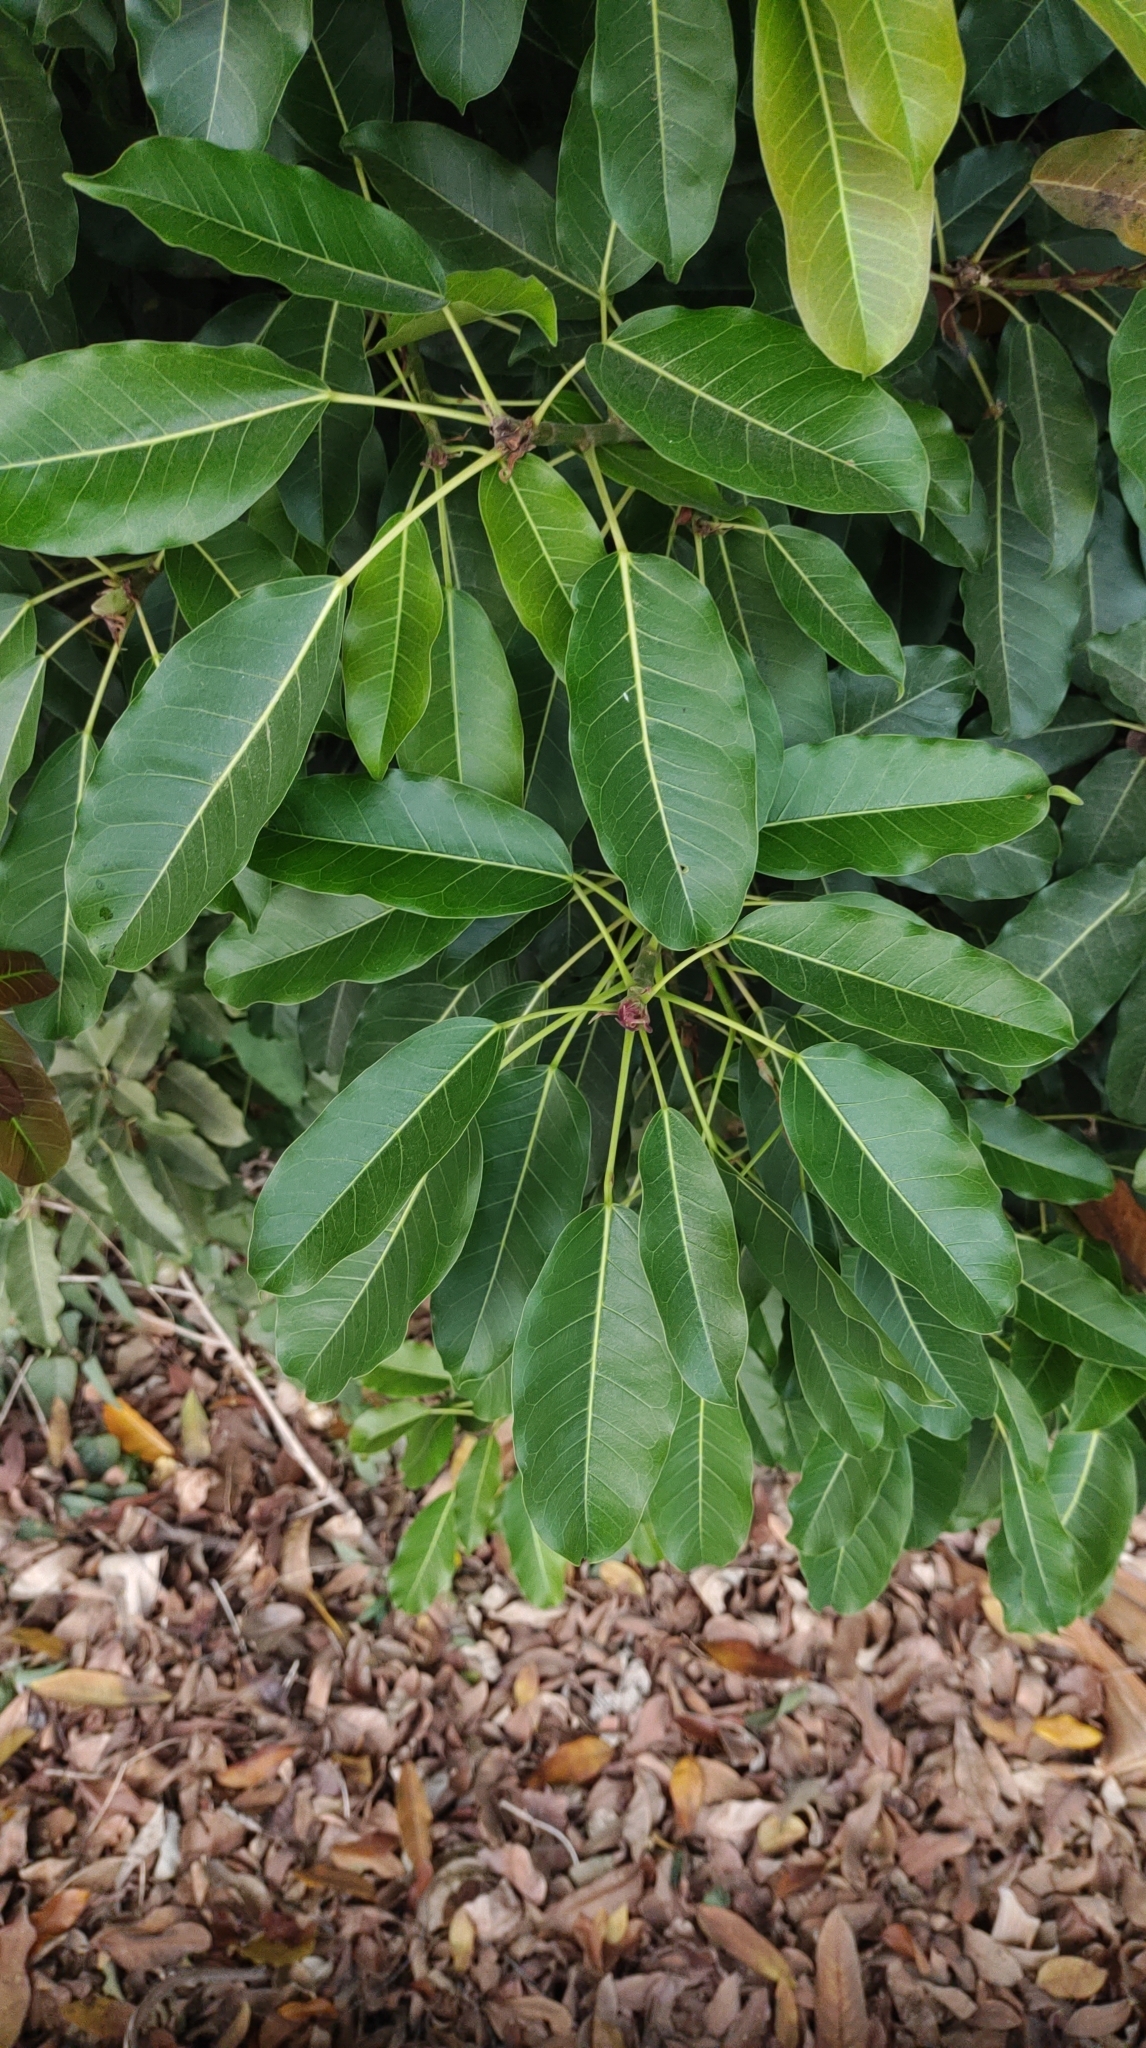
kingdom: Plantae
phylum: Tracheophyta
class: Magnoliopsida
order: Rosales
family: Moraceae
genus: Ficus
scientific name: Ficus subpisocarpa
